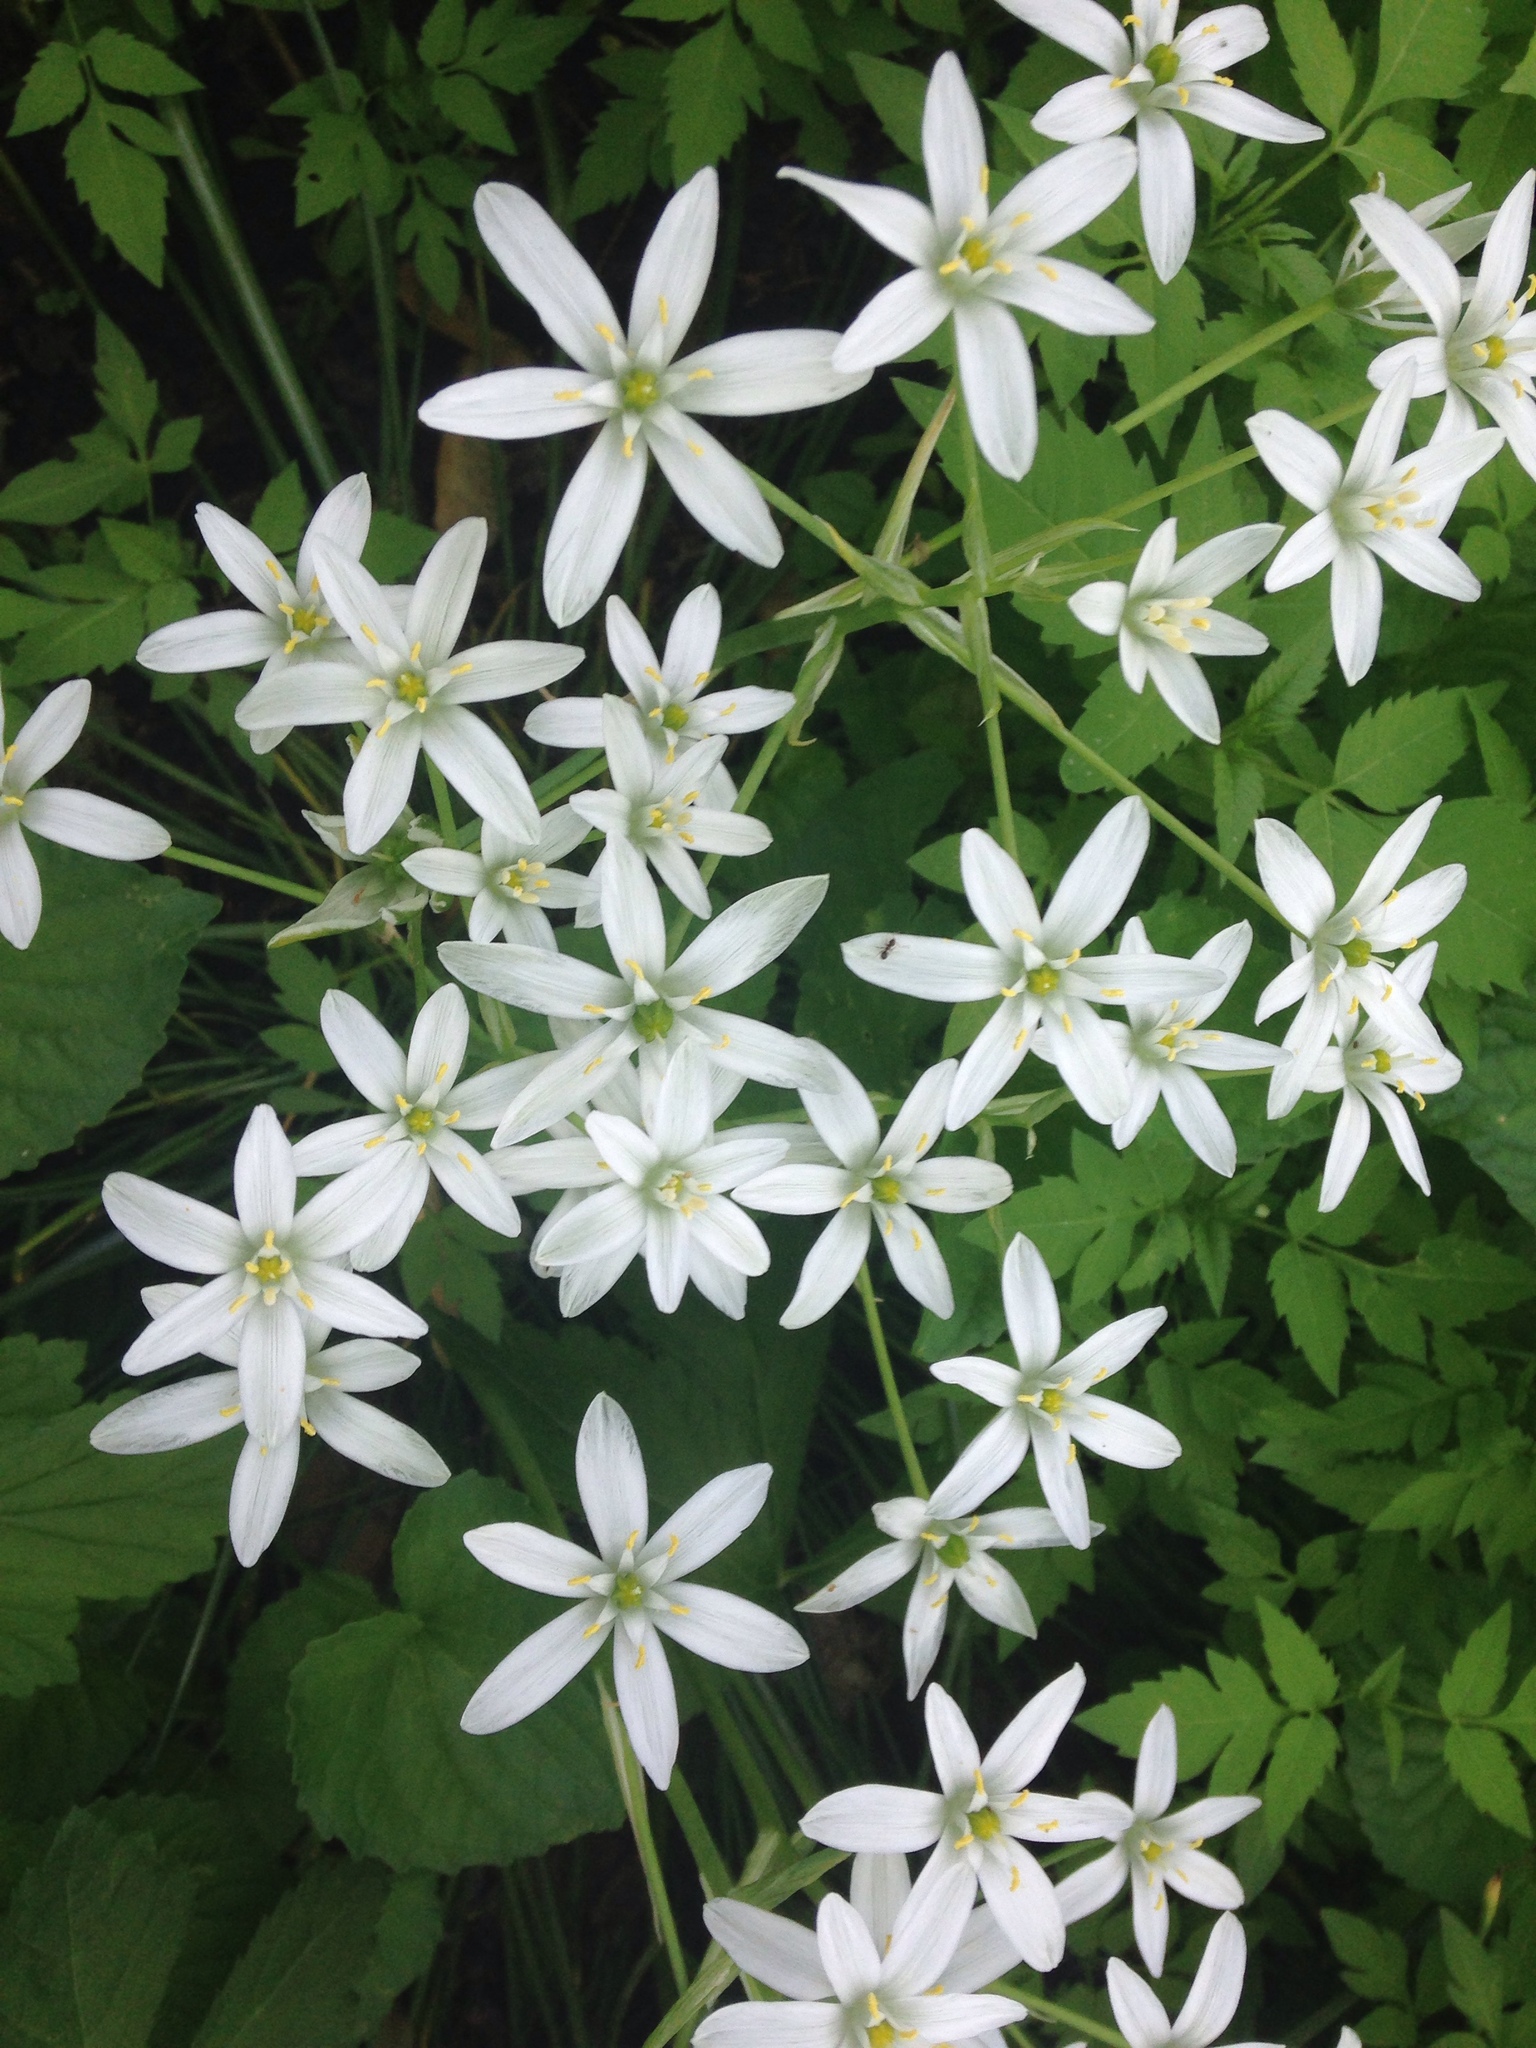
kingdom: Plantae
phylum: Tracheophyta
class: Liliopsida
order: Asparagales
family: Asparagaceae
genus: Ornithogalum
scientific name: Ornithogalum umbellatum
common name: Garden star-of-bethlehem
